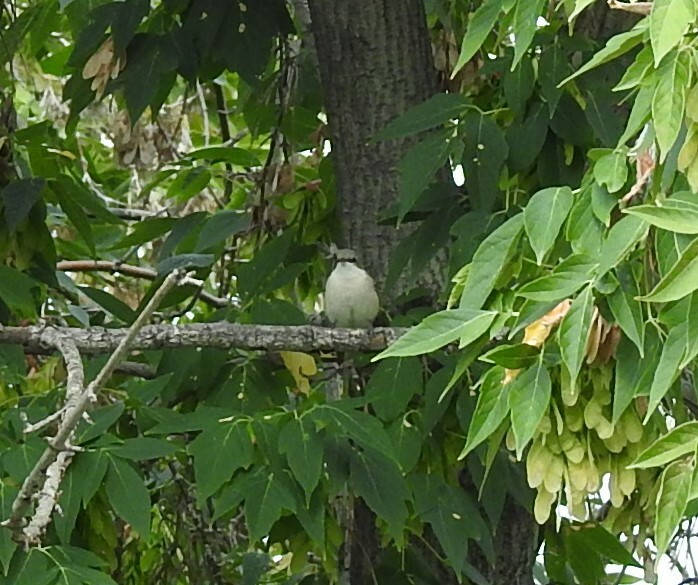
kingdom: Animalia
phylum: Chordata
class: Aves
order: Passeriformes
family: Sylviidae
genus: Sylvia
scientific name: Sylvia curruca
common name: Lesser whitethroat
